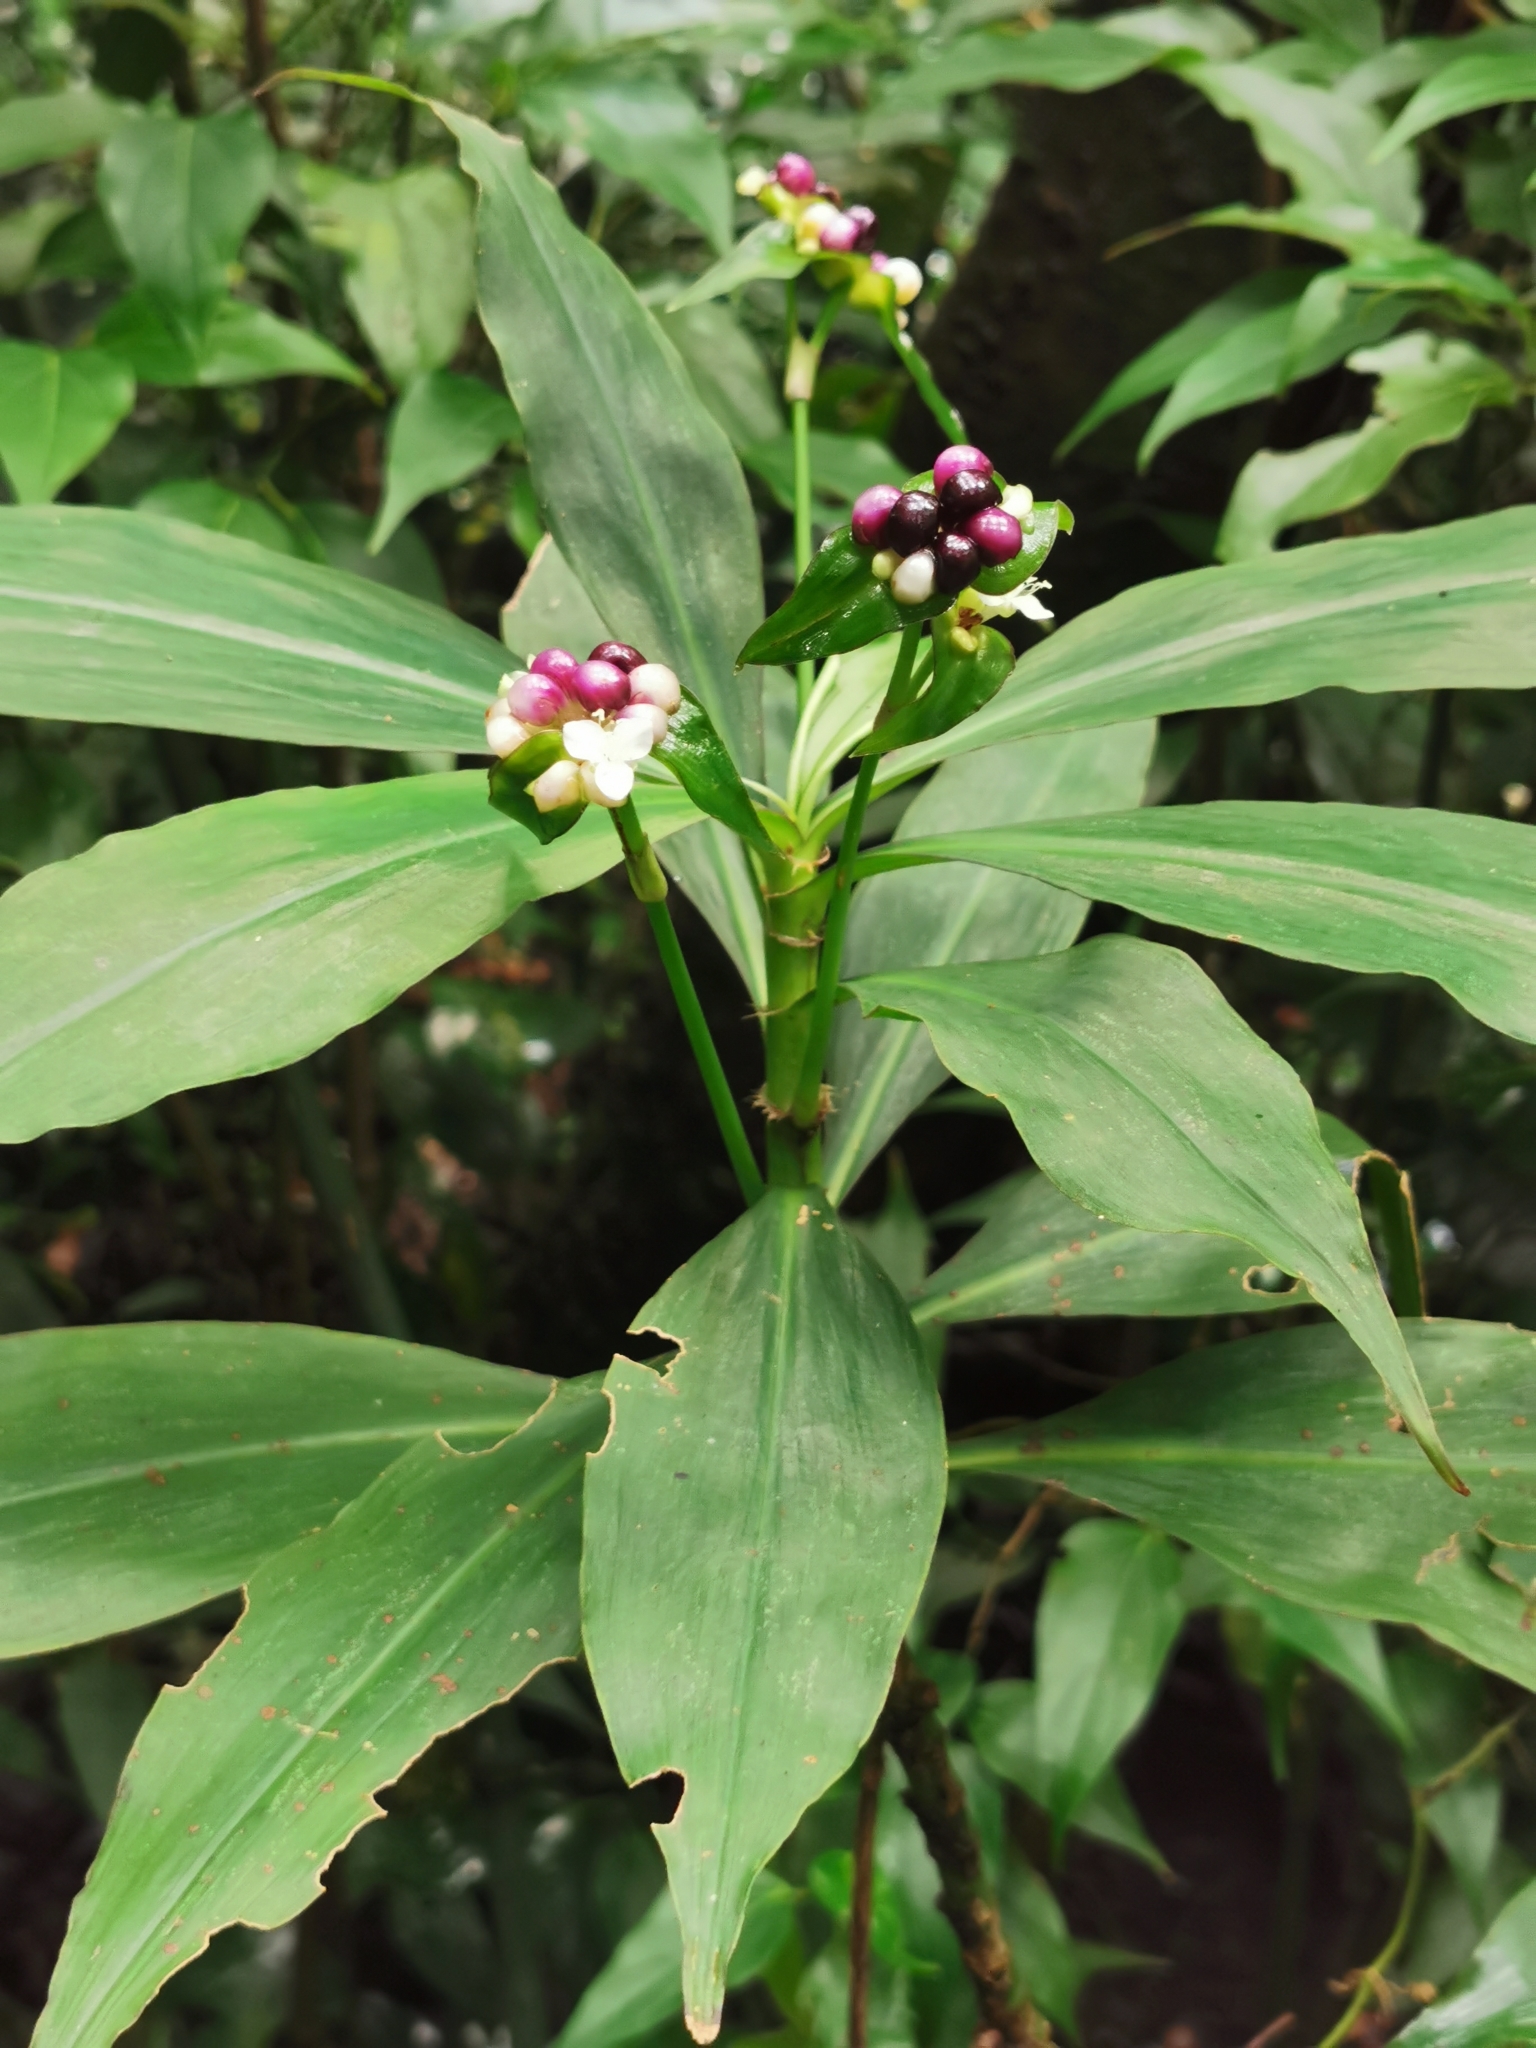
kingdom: Plantae
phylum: Tracheophyta
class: Liliopsida
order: Commelinales
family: Commelinaceae
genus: Tradescantia
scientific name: Tradescantia zanonia
